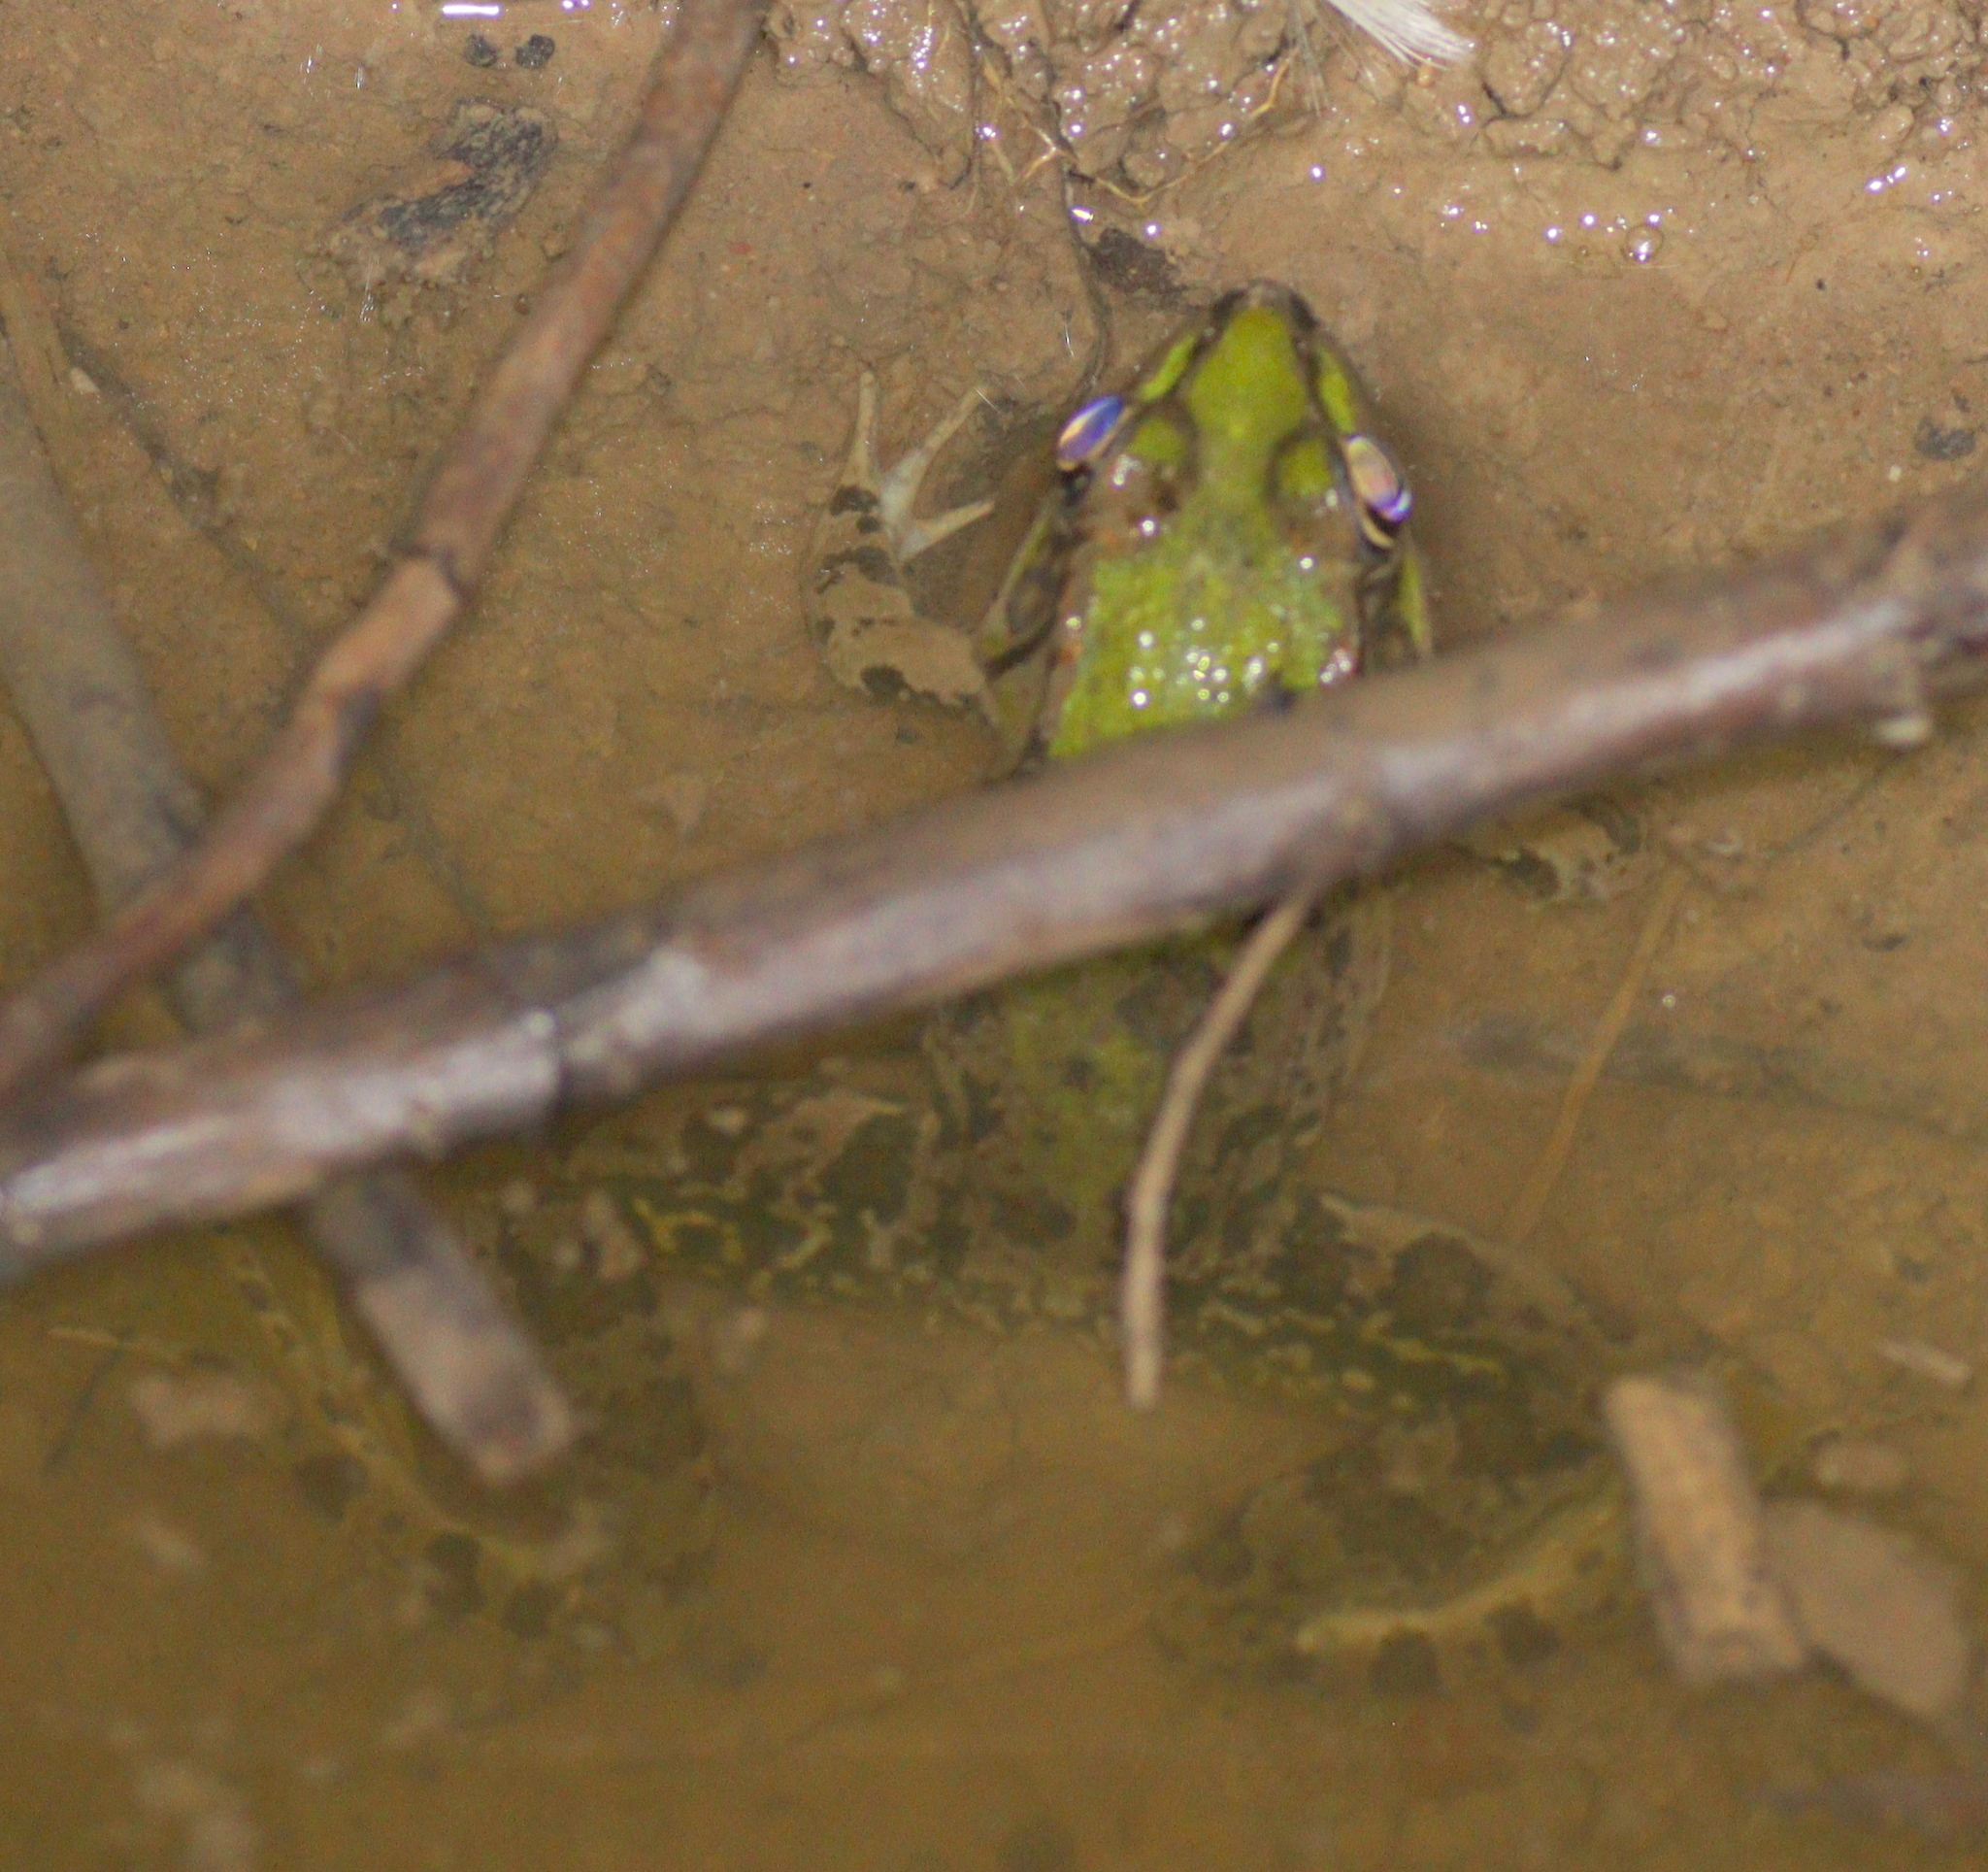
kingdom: Animalia
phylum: Chordata
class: Amphibia
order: Anura
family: Ranidae
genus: Pelophylax
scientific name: Pelophylax ridibundus
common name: Marsh frog
